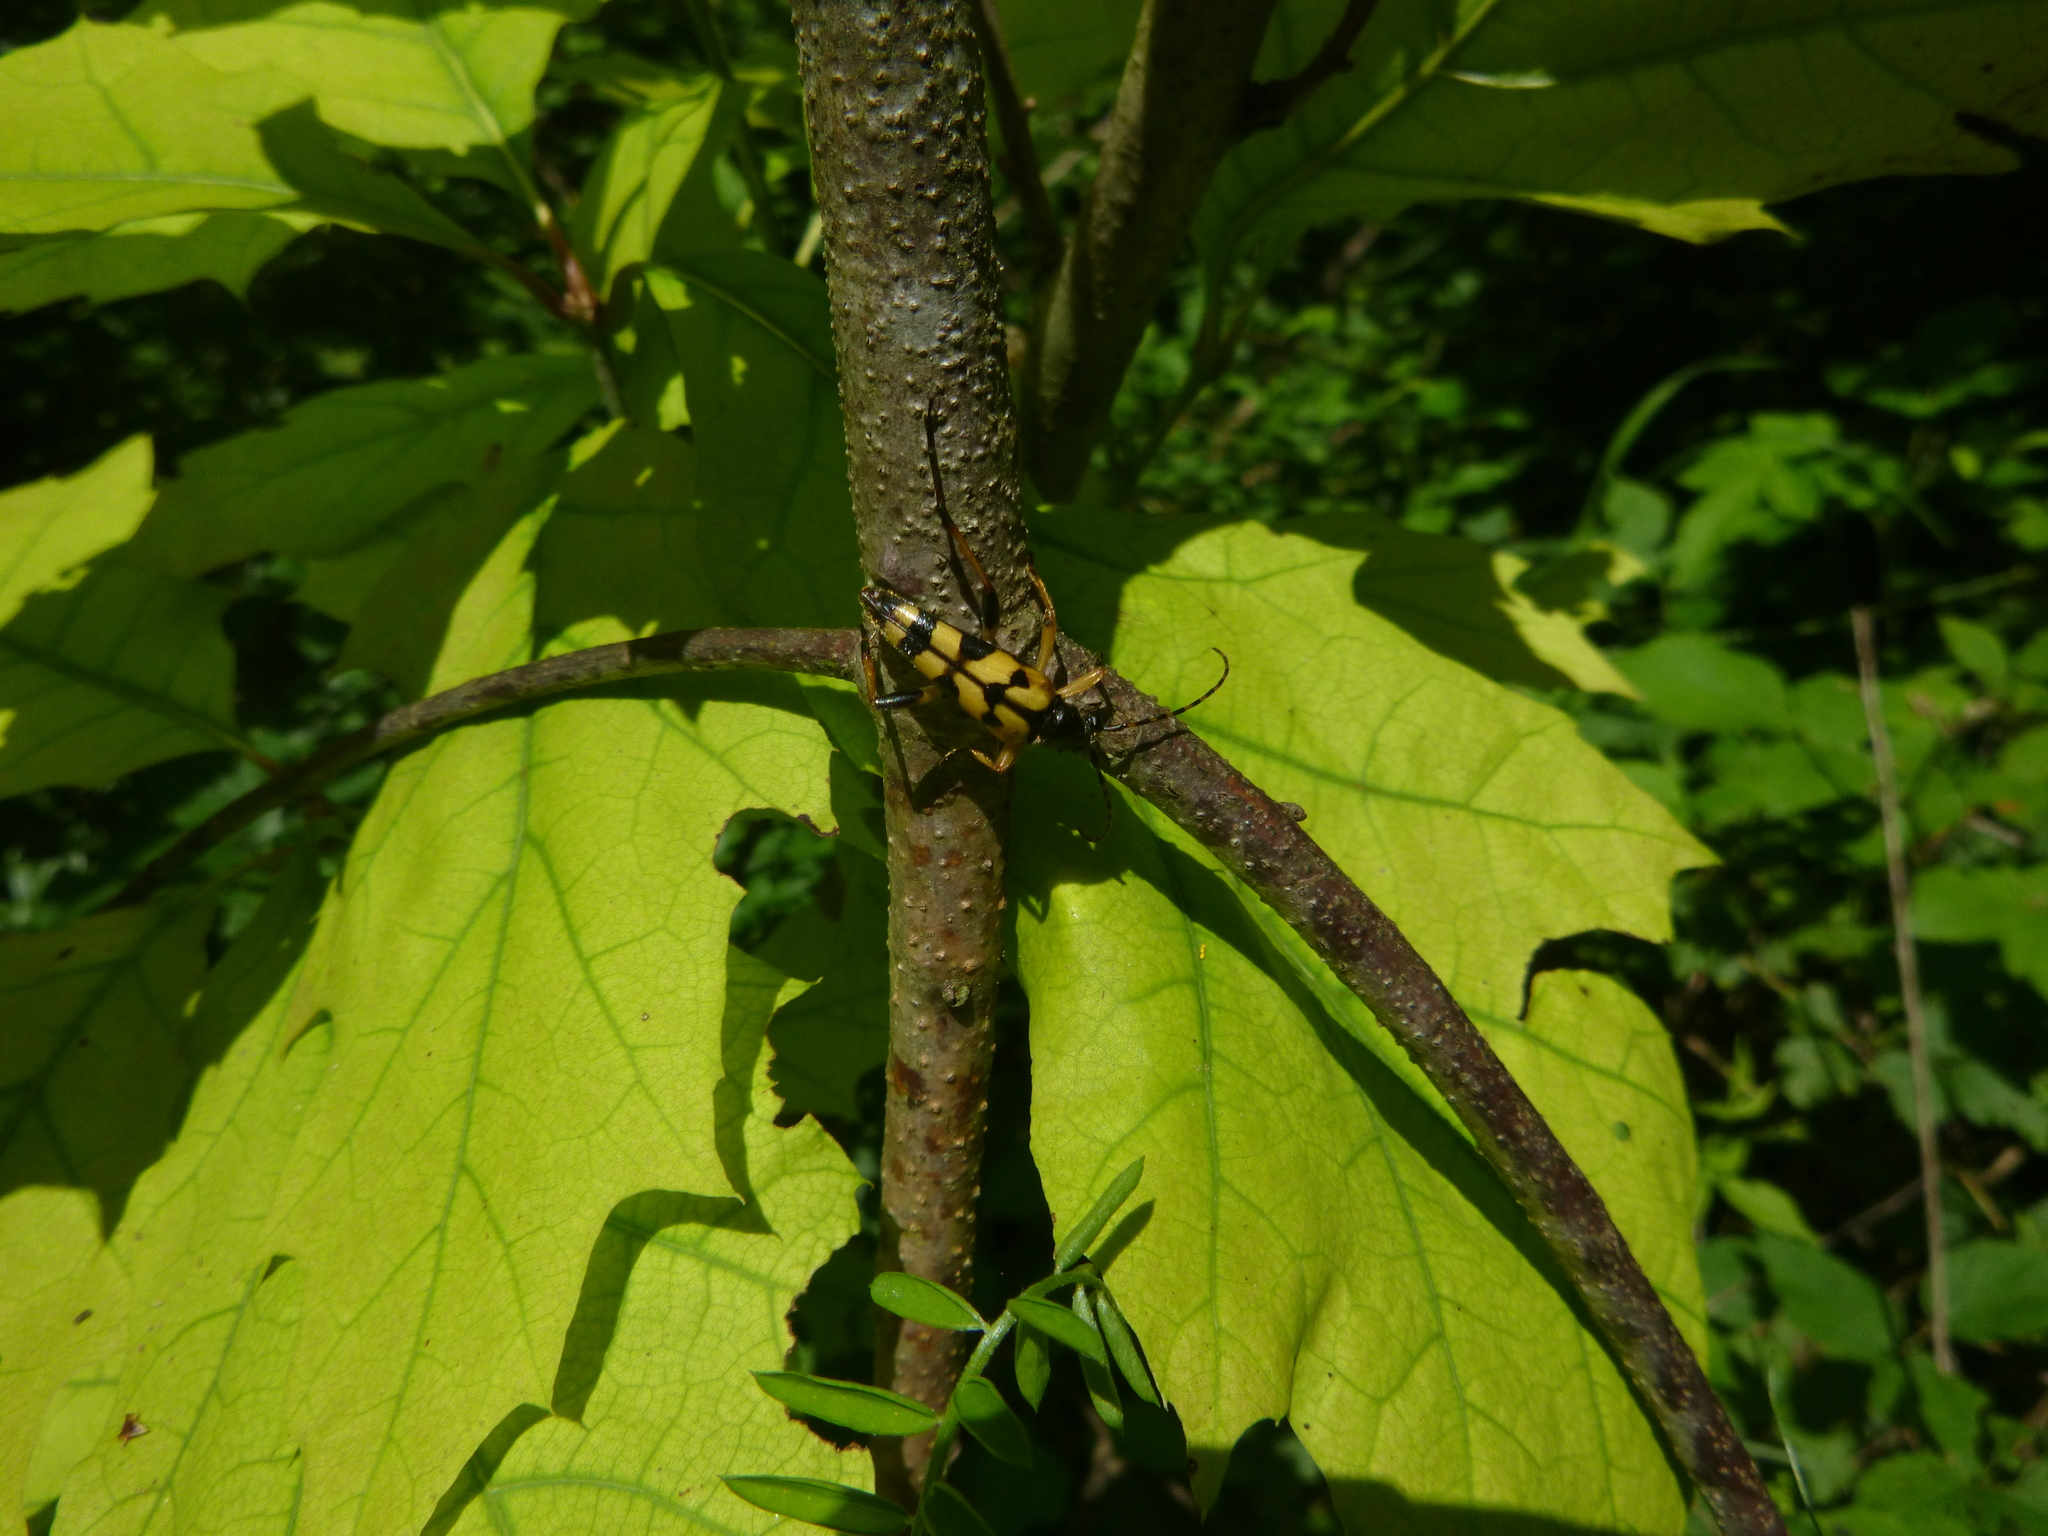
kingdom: Animalia
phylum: Arthropoda
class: Insecta
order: Coleoptera
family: Cerambycidae
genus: Rutpela
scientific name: Rutpela maculata
